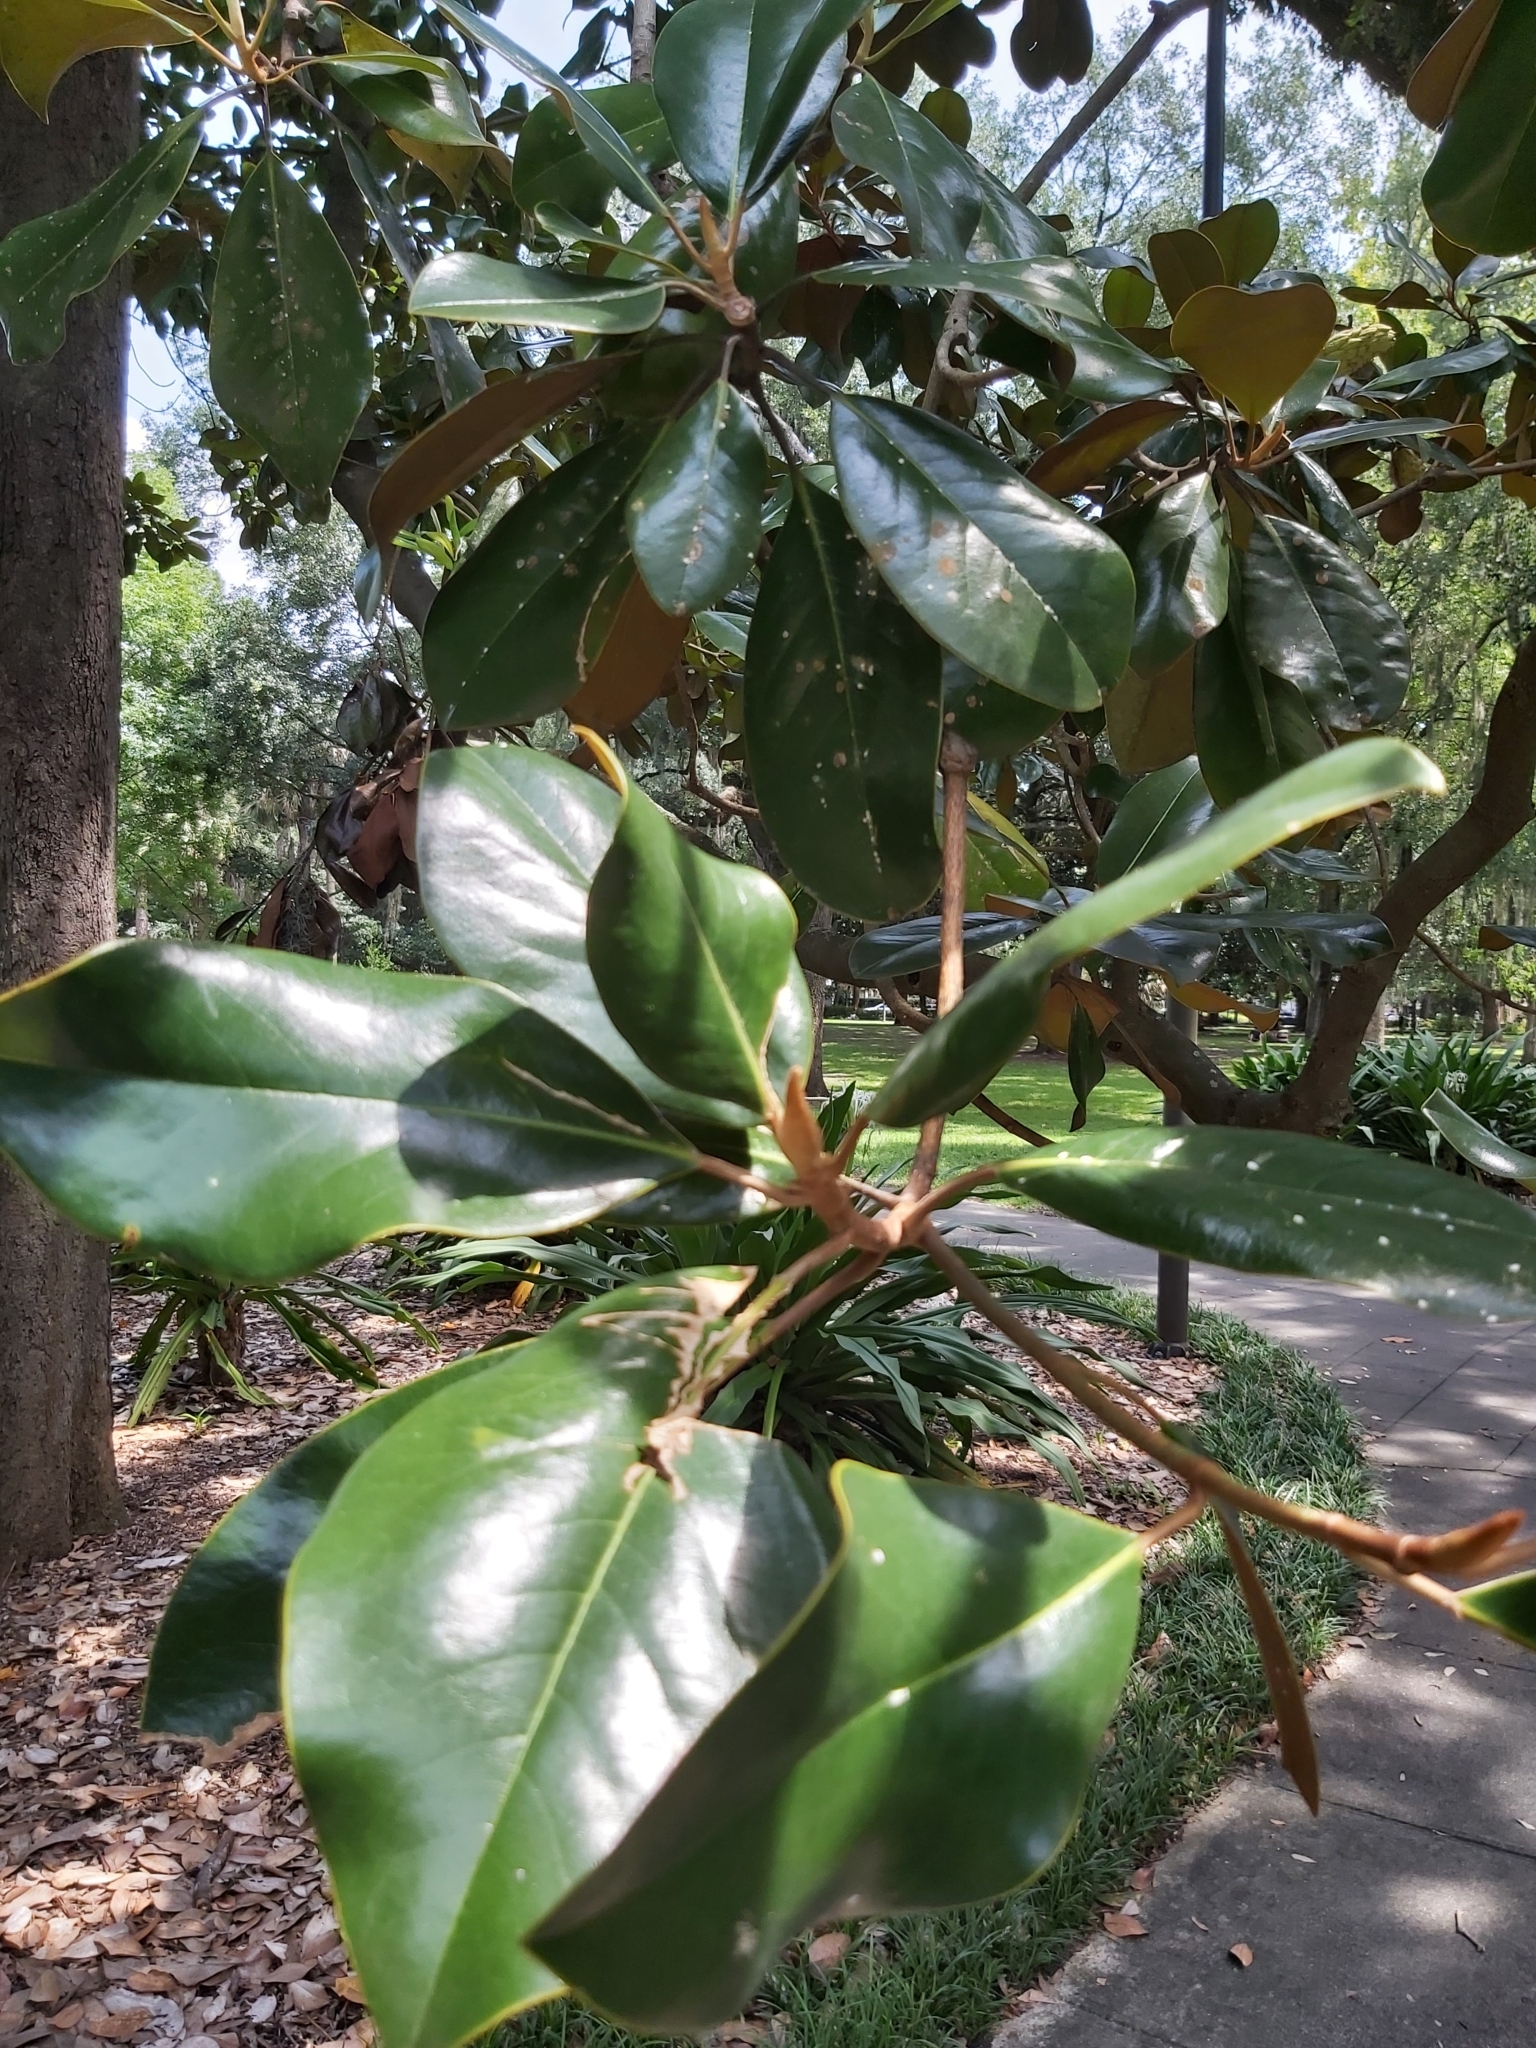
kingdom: Plantae
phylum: Tracheophyta
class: Magnoliopsida
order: Magnoliales
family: Magnoliaceae
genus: Magnolia
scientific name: Magnolia grandiflora
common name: Southern magnolia
